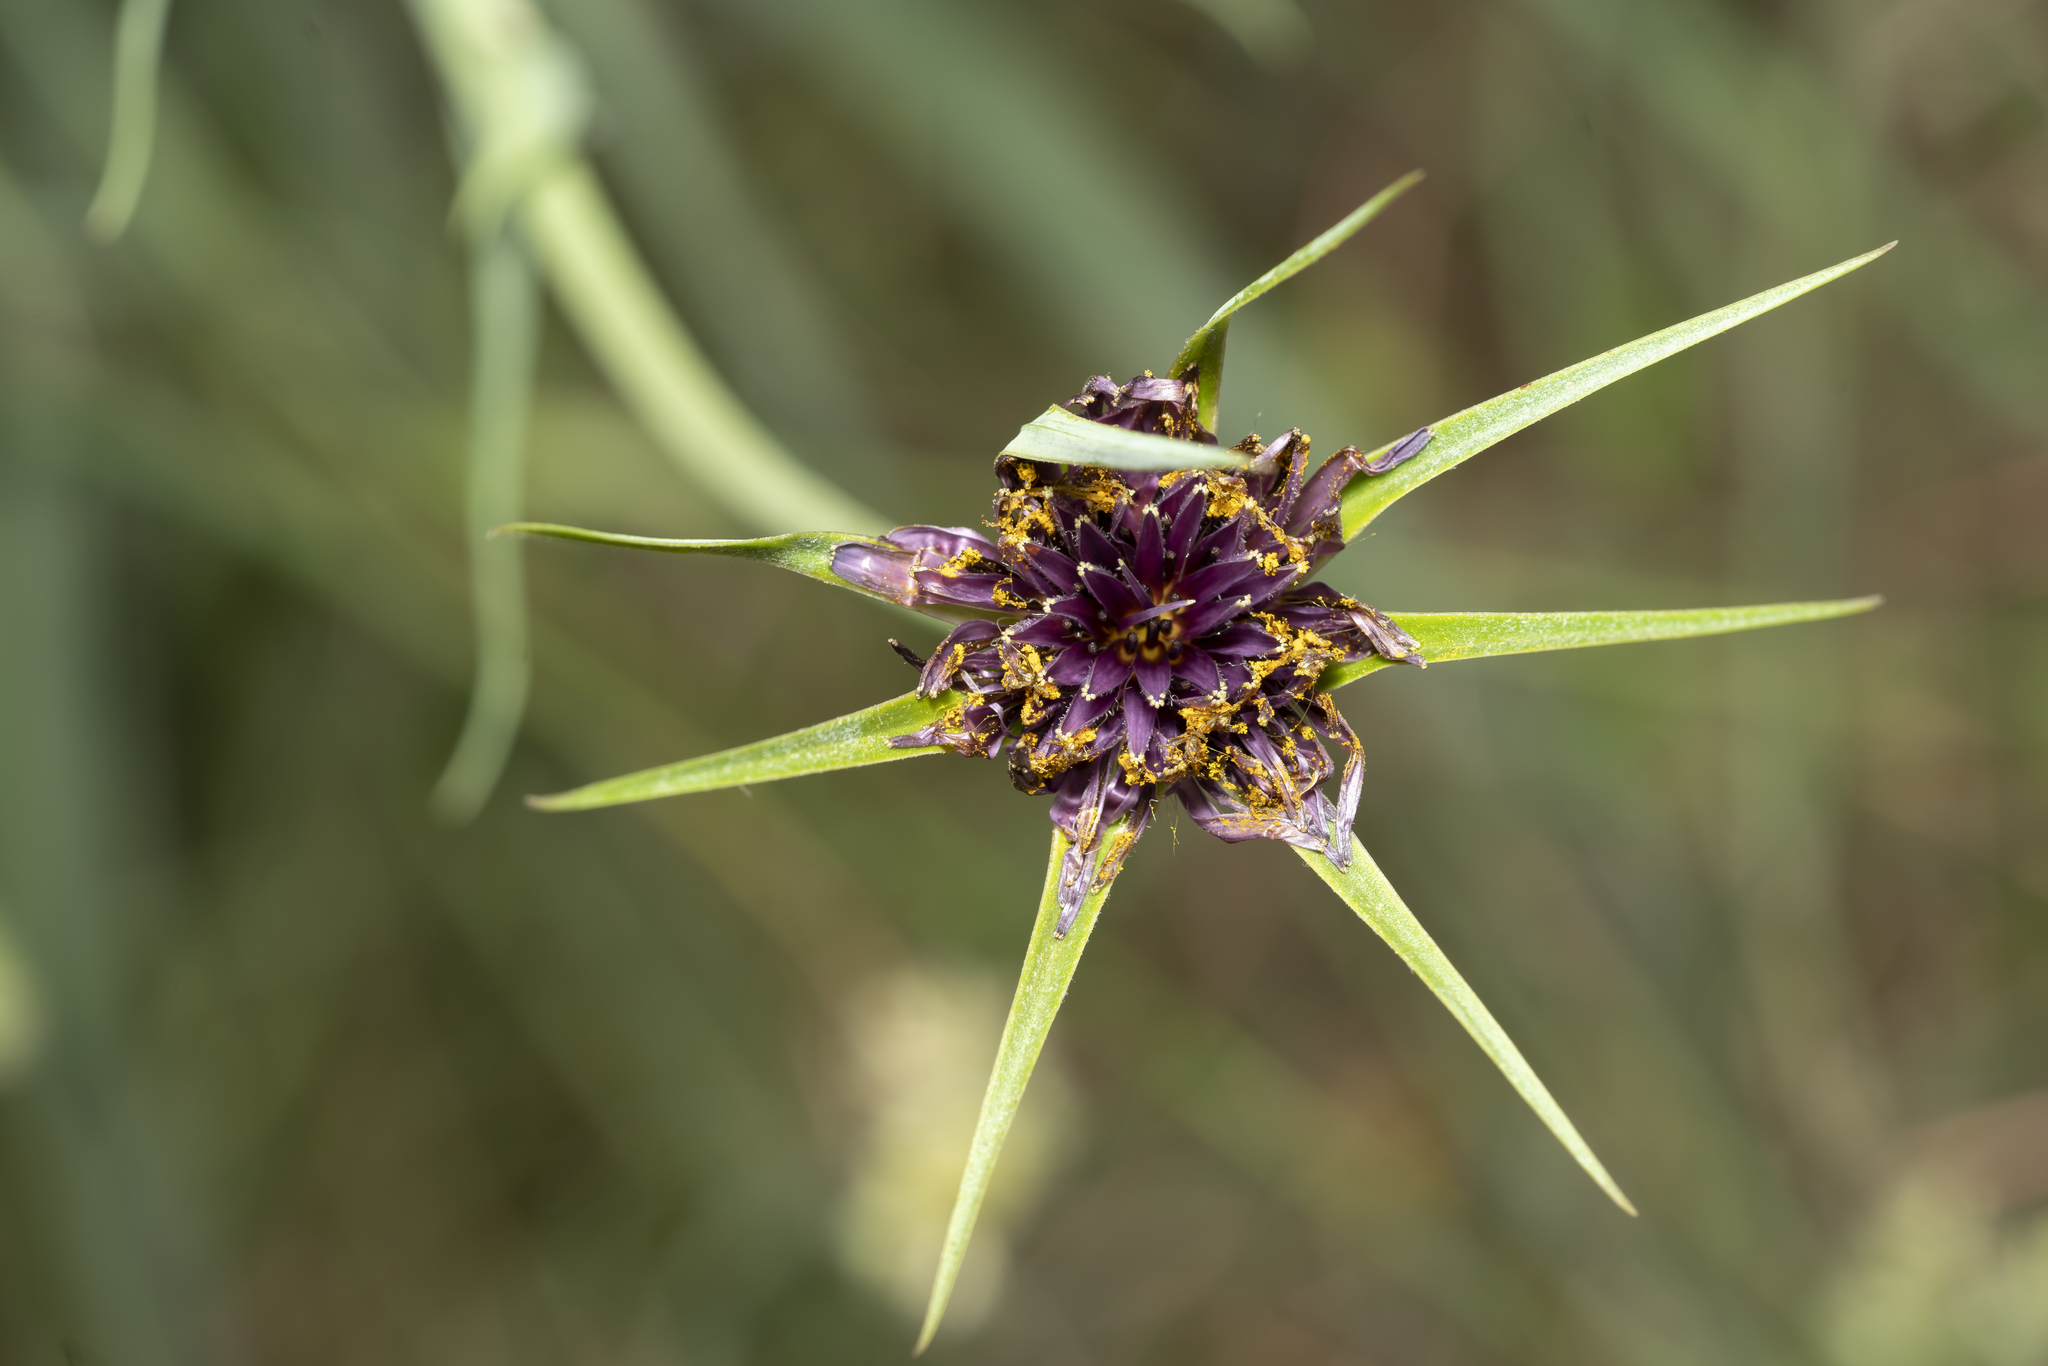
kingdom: Plantae
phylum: Tracheophyta
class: Magnoliopsida
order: Asterales
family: Asteraceae
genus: Tragopogon
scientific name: Tragopogon coelesyriacus
